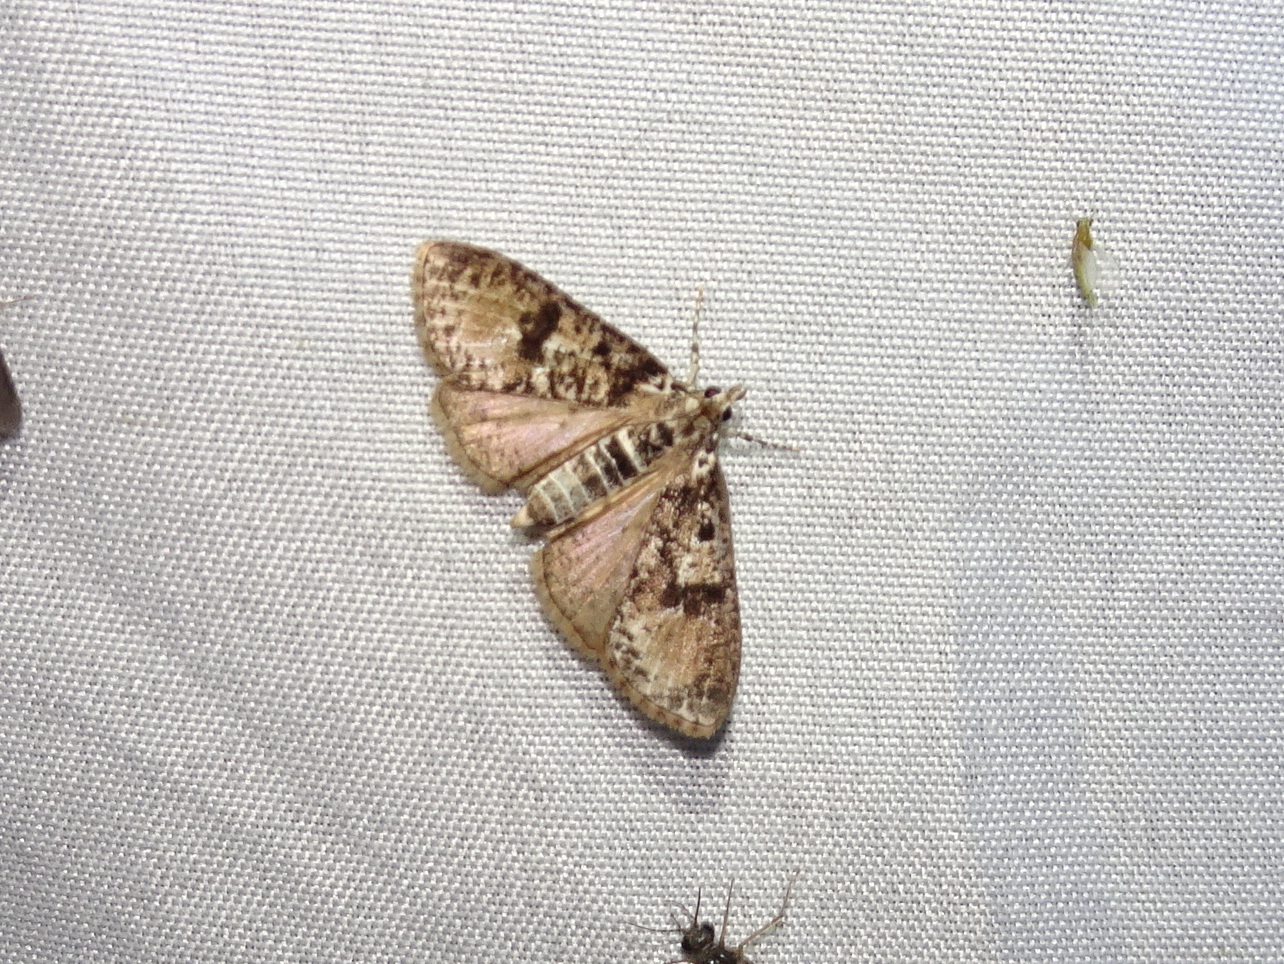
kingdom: Animalia
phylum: Arthropoda
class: Insecta
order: Lepidoptera
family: Crambidae
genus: Palpita
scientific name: Palpita magniferalis
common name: Splendid palpita moth
